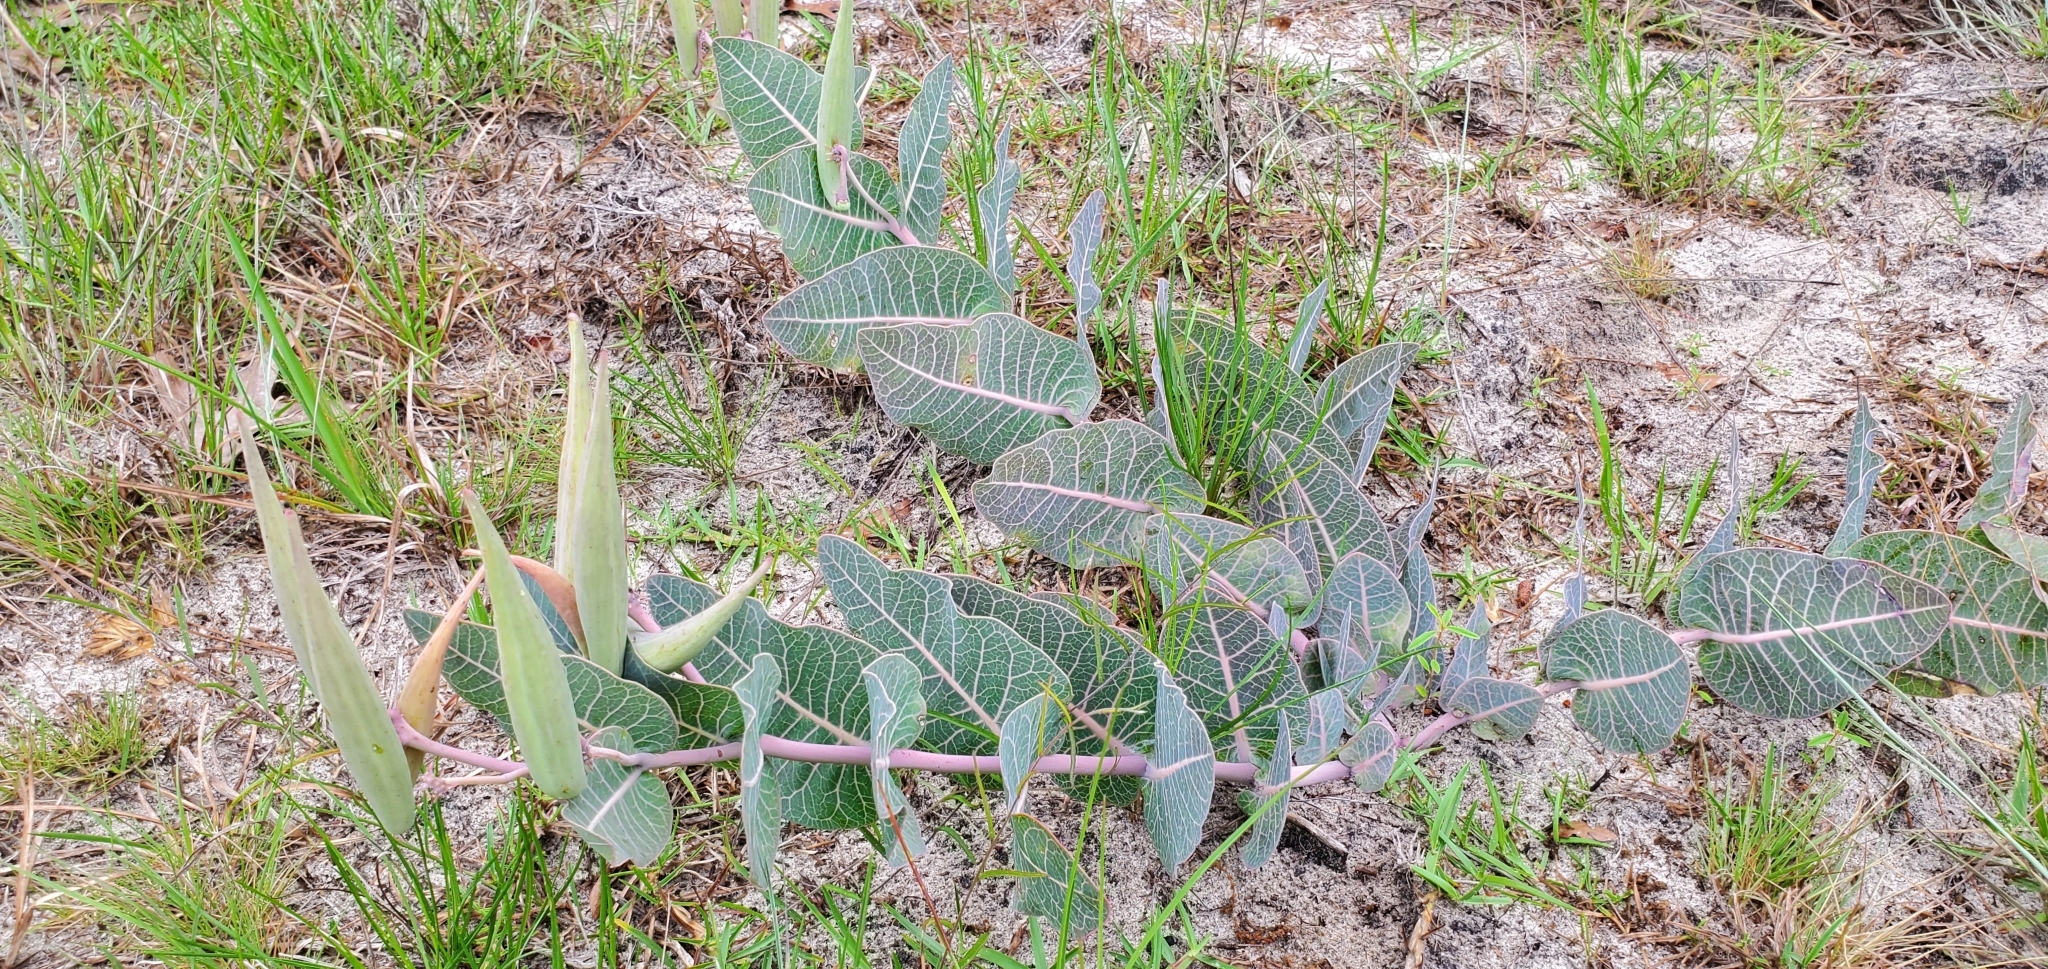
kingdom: Plantae
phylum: Tracheophyta
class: Magnoliopsida
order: Gentianales
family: Apocynaceae
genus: Asclepias
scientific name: Asclepias humistrata
